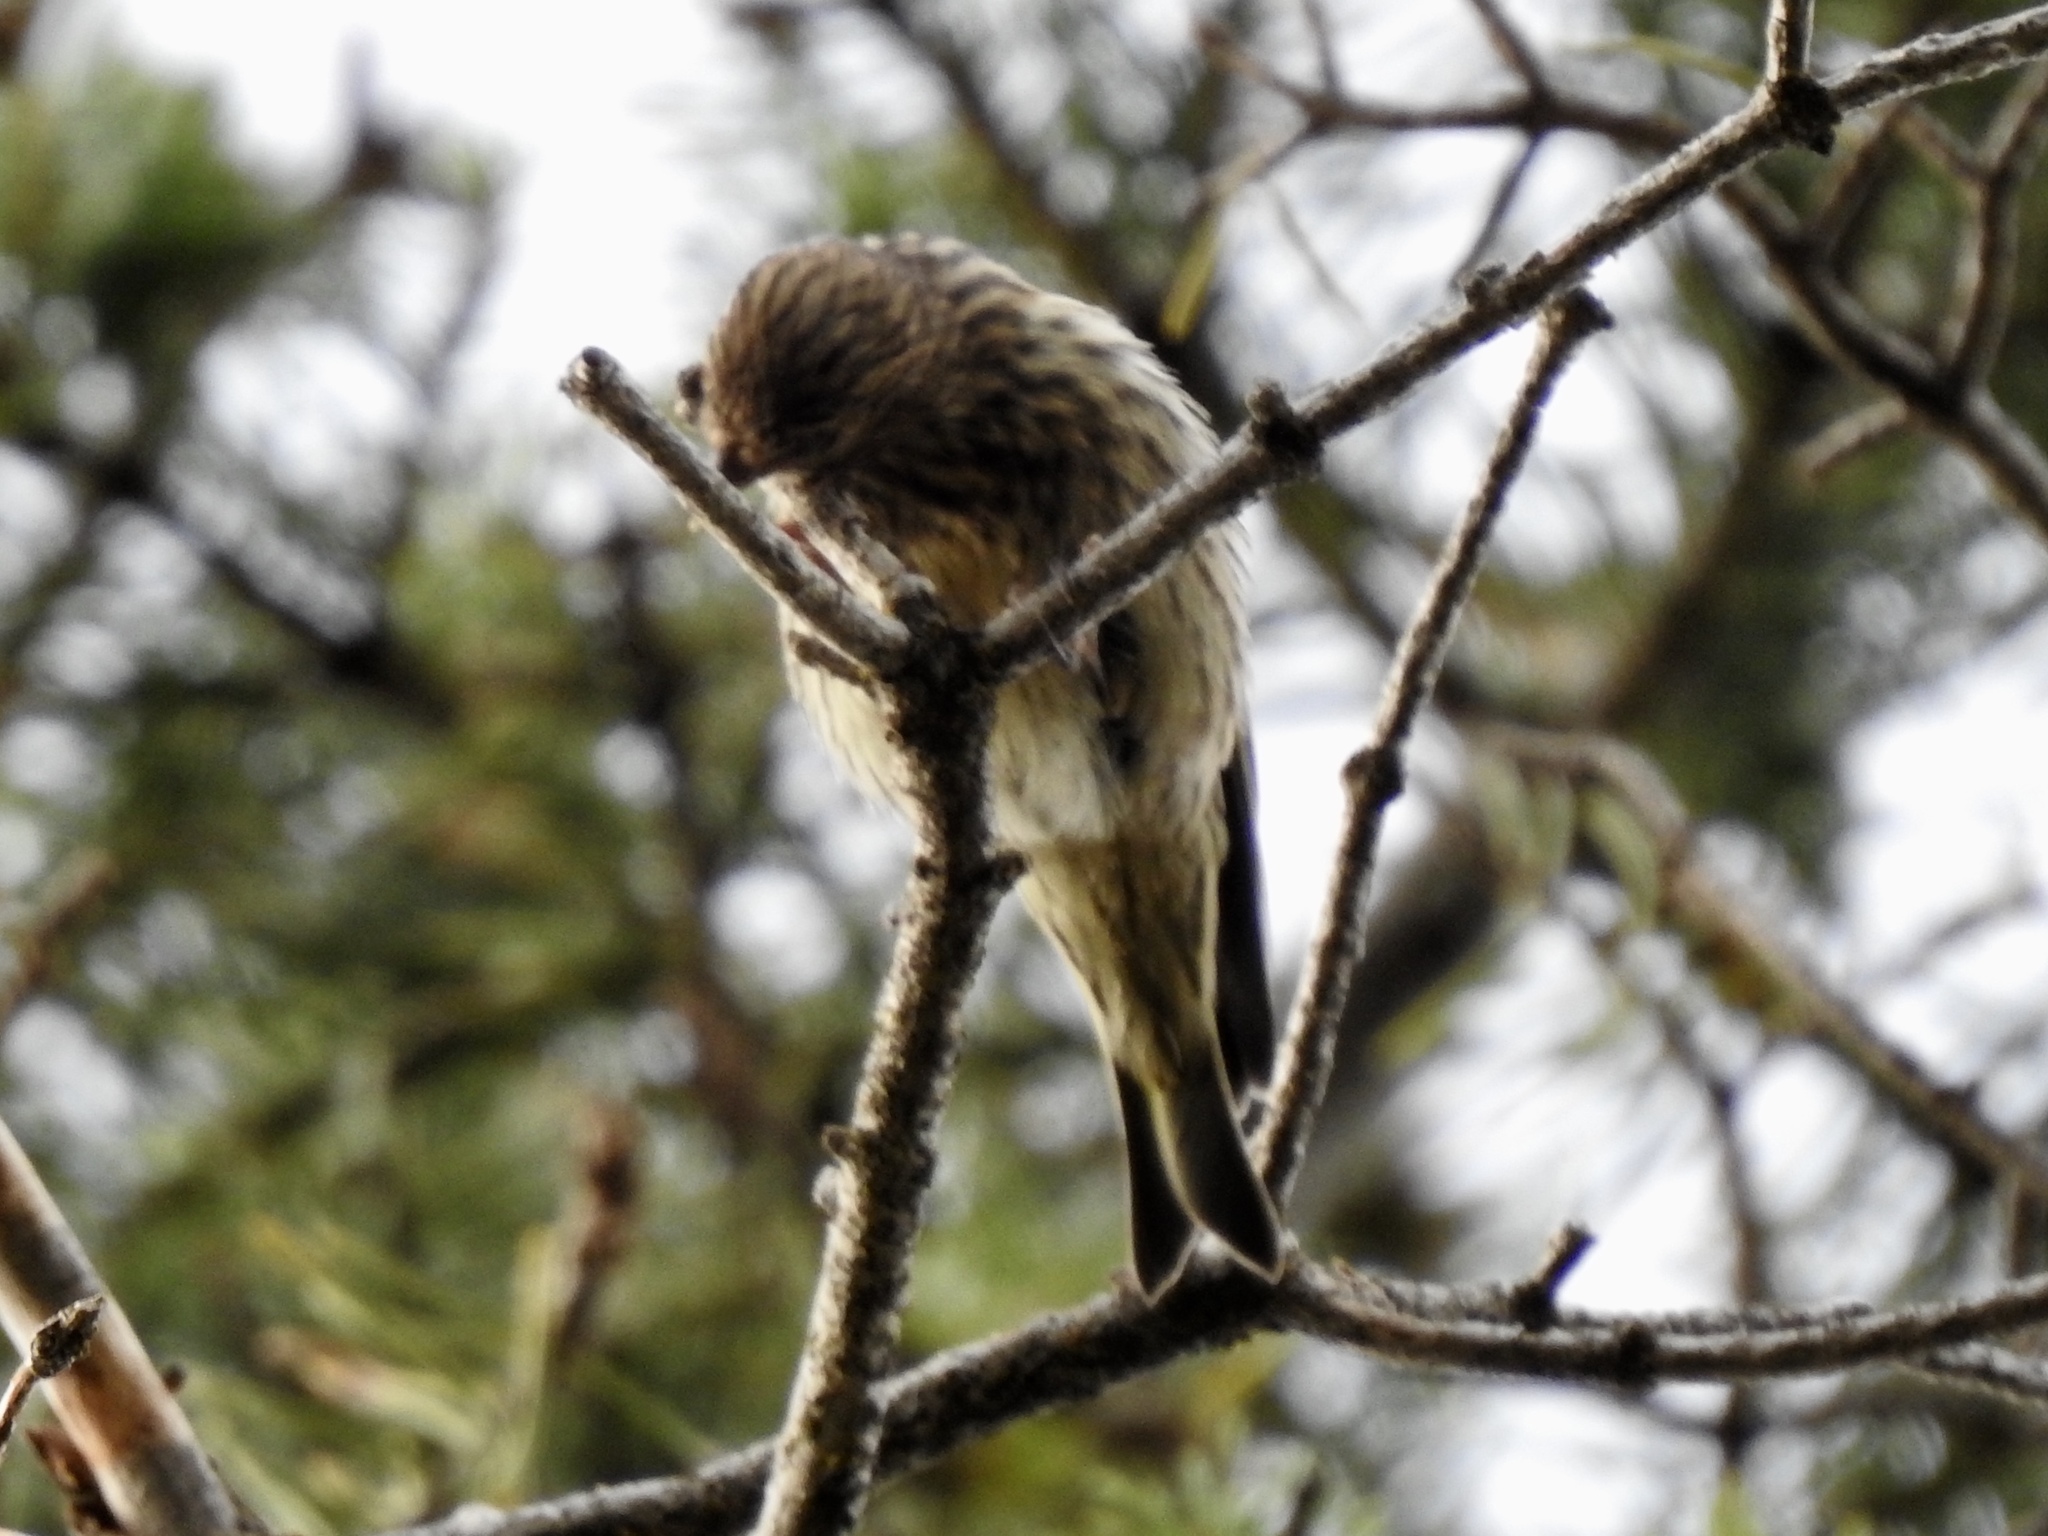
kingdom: Animalia
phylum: Chordata
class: Aves
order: Passeriformes
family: Fringillidae
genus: Spinus
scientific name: Spinus pinus
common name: Pine siskin
